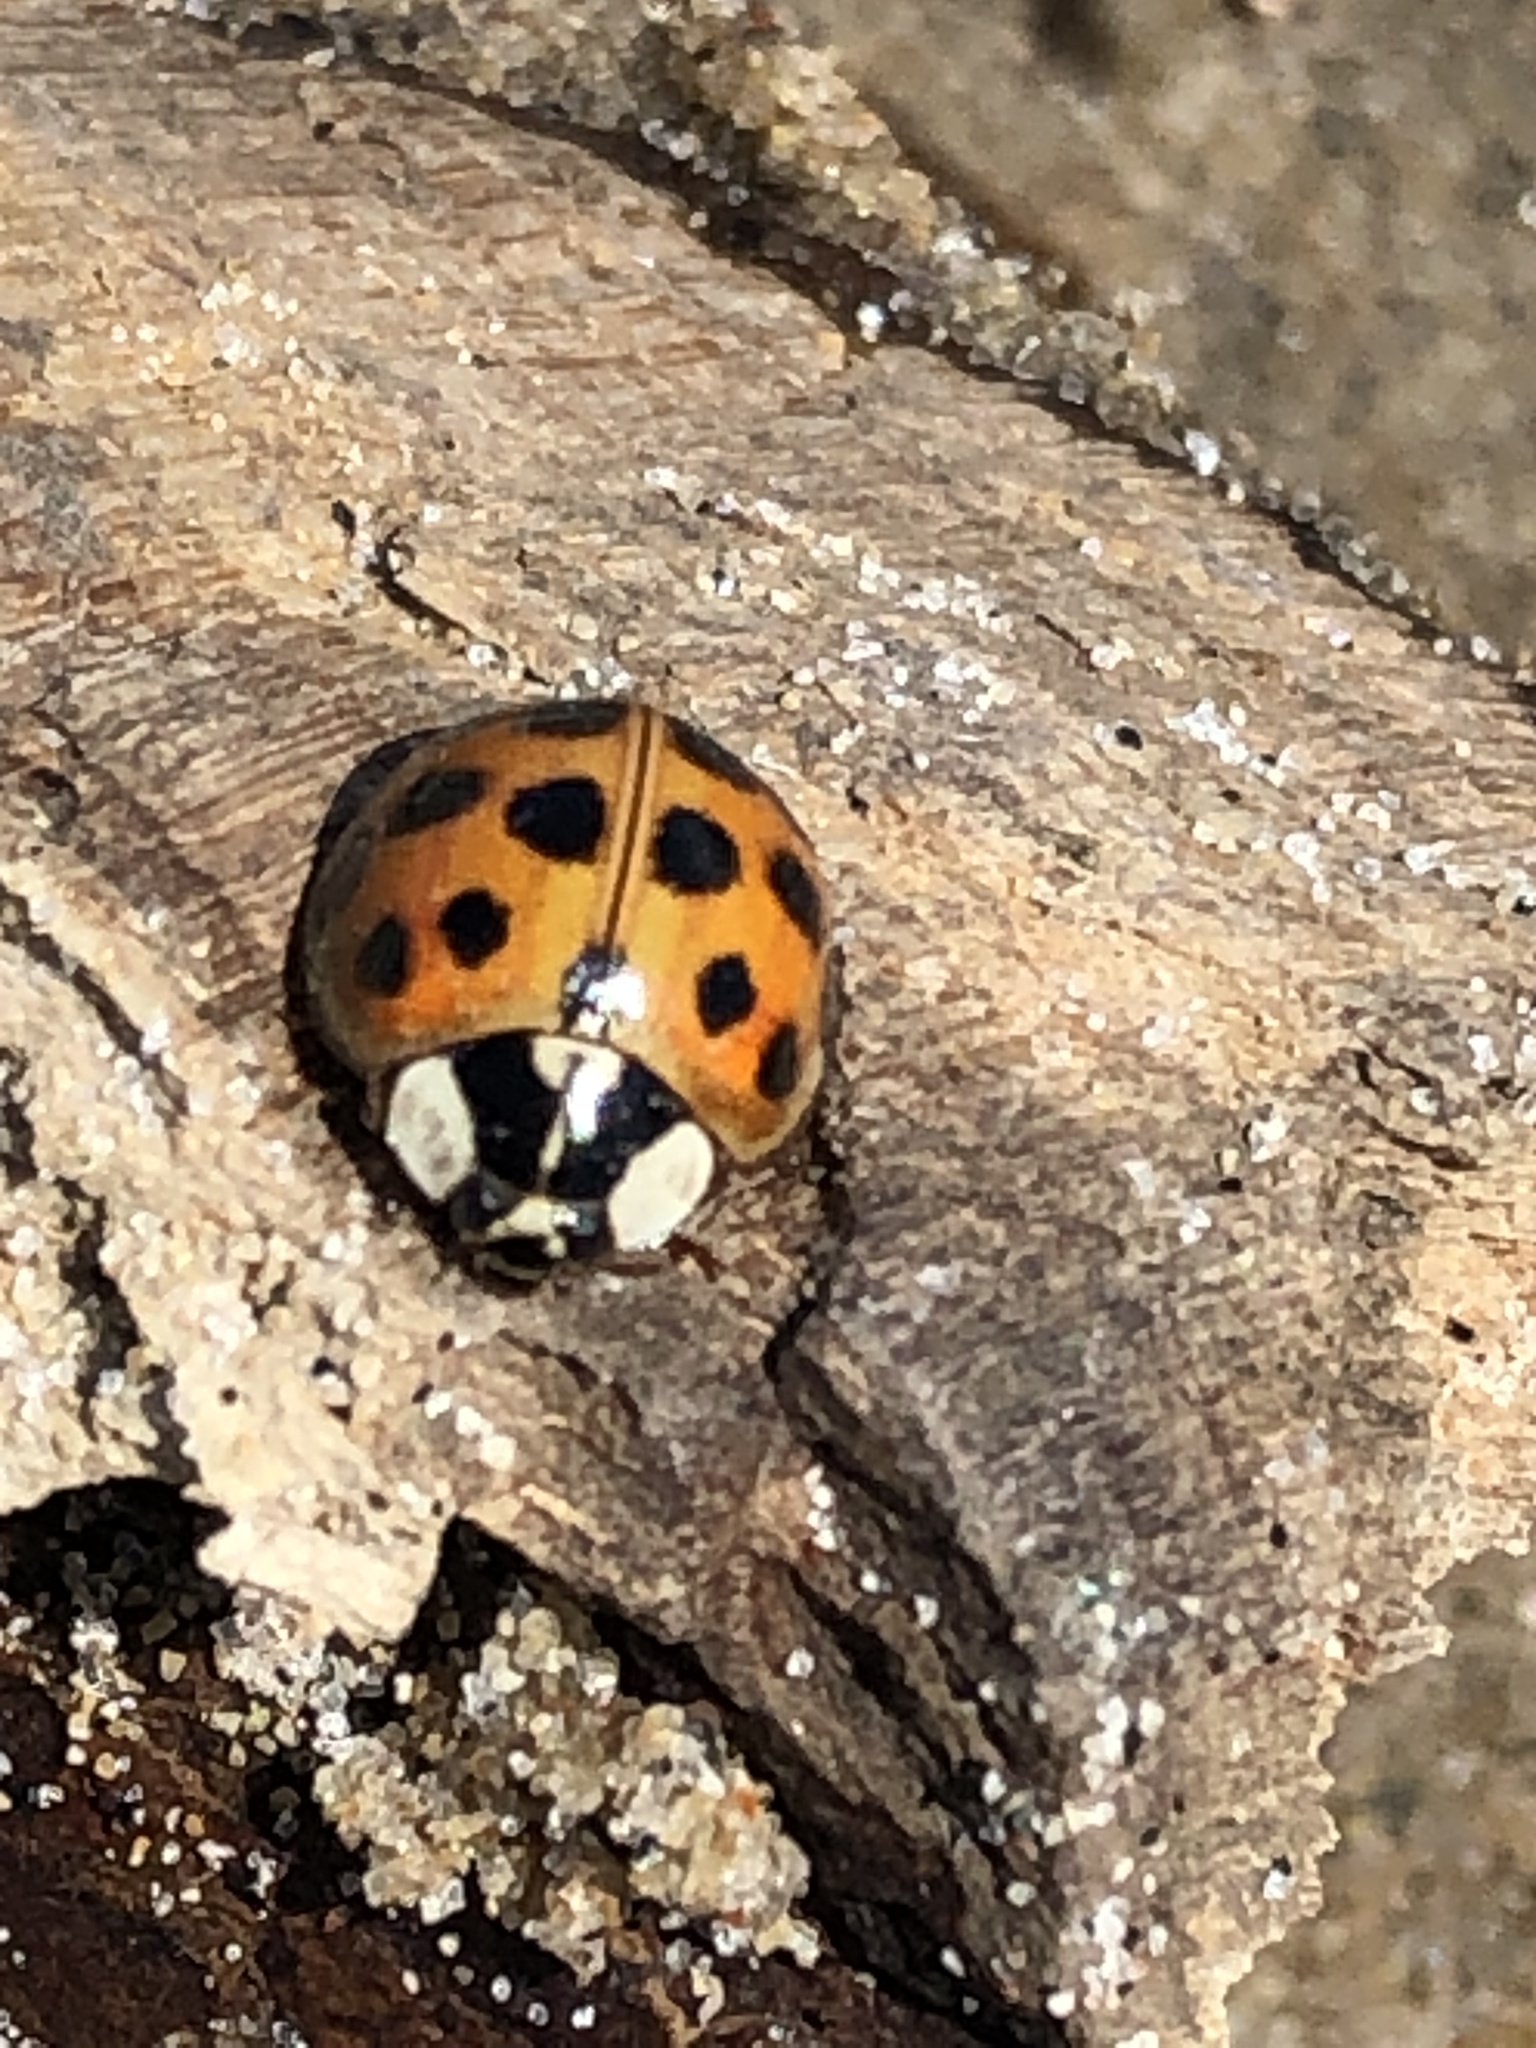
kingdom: Animalia
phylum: Arthropoda
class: Insecta
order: Coleoptera
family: Coccinellidae
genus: Harmonia
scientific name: Harmonia axyridis
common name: Harlequin ladybird
